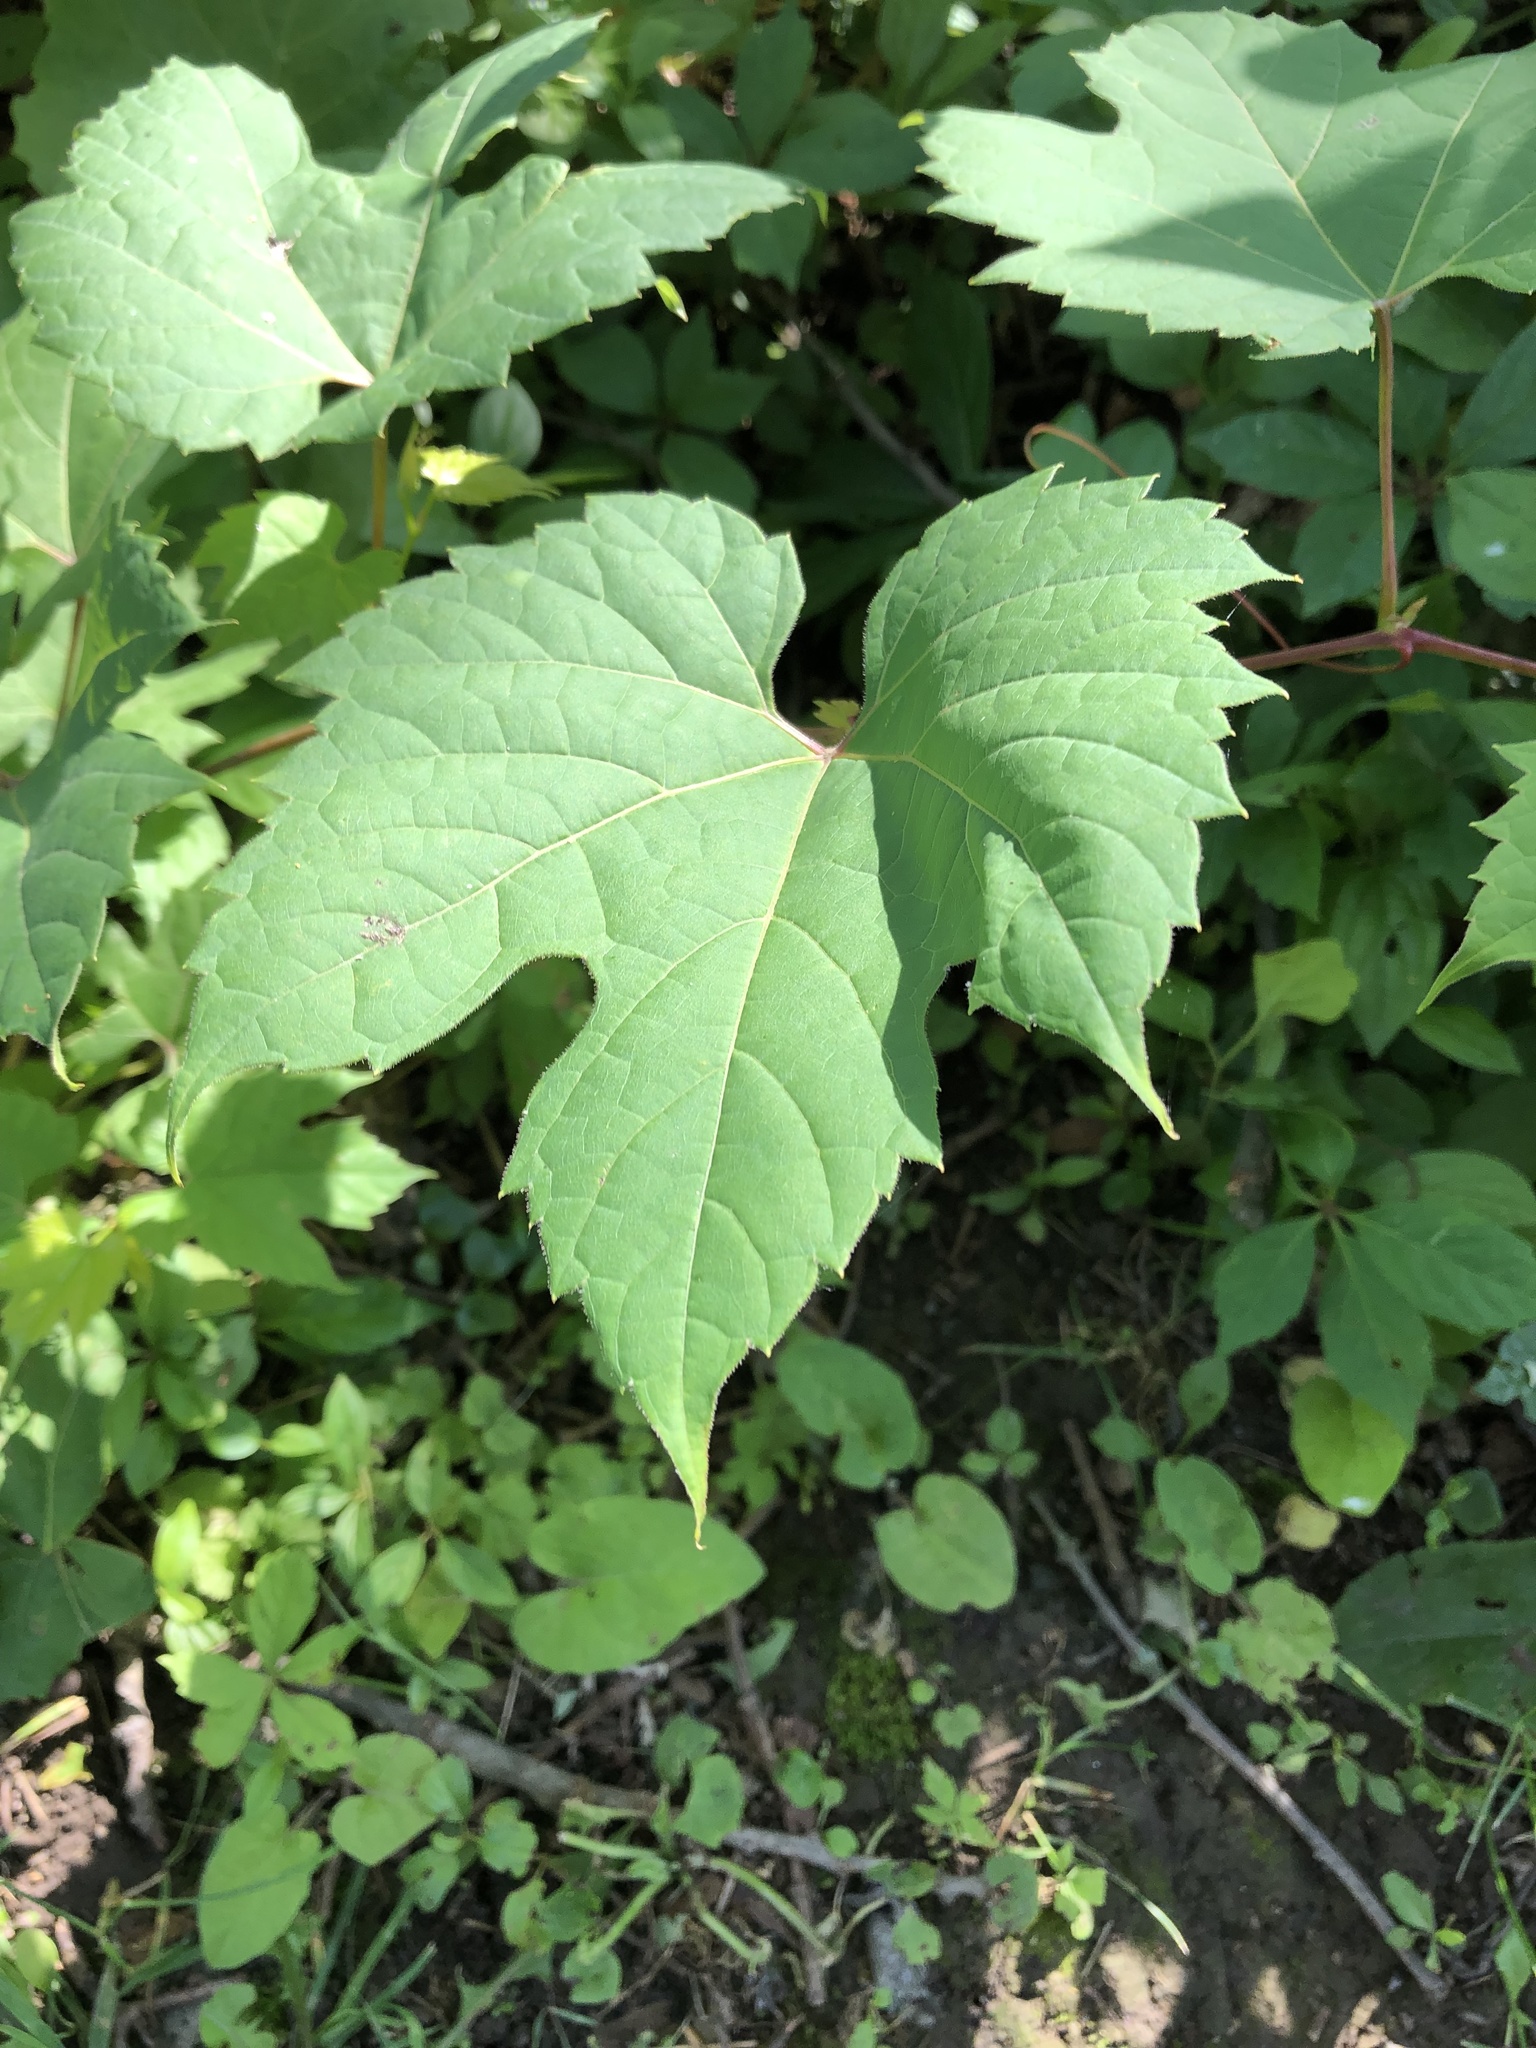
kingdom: Plantae
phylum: Tracheophyta
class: Magnoliopsida
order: Vitales
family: Vitaceae
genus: Vitis
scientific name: Vitis riparia
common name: Frost grape
